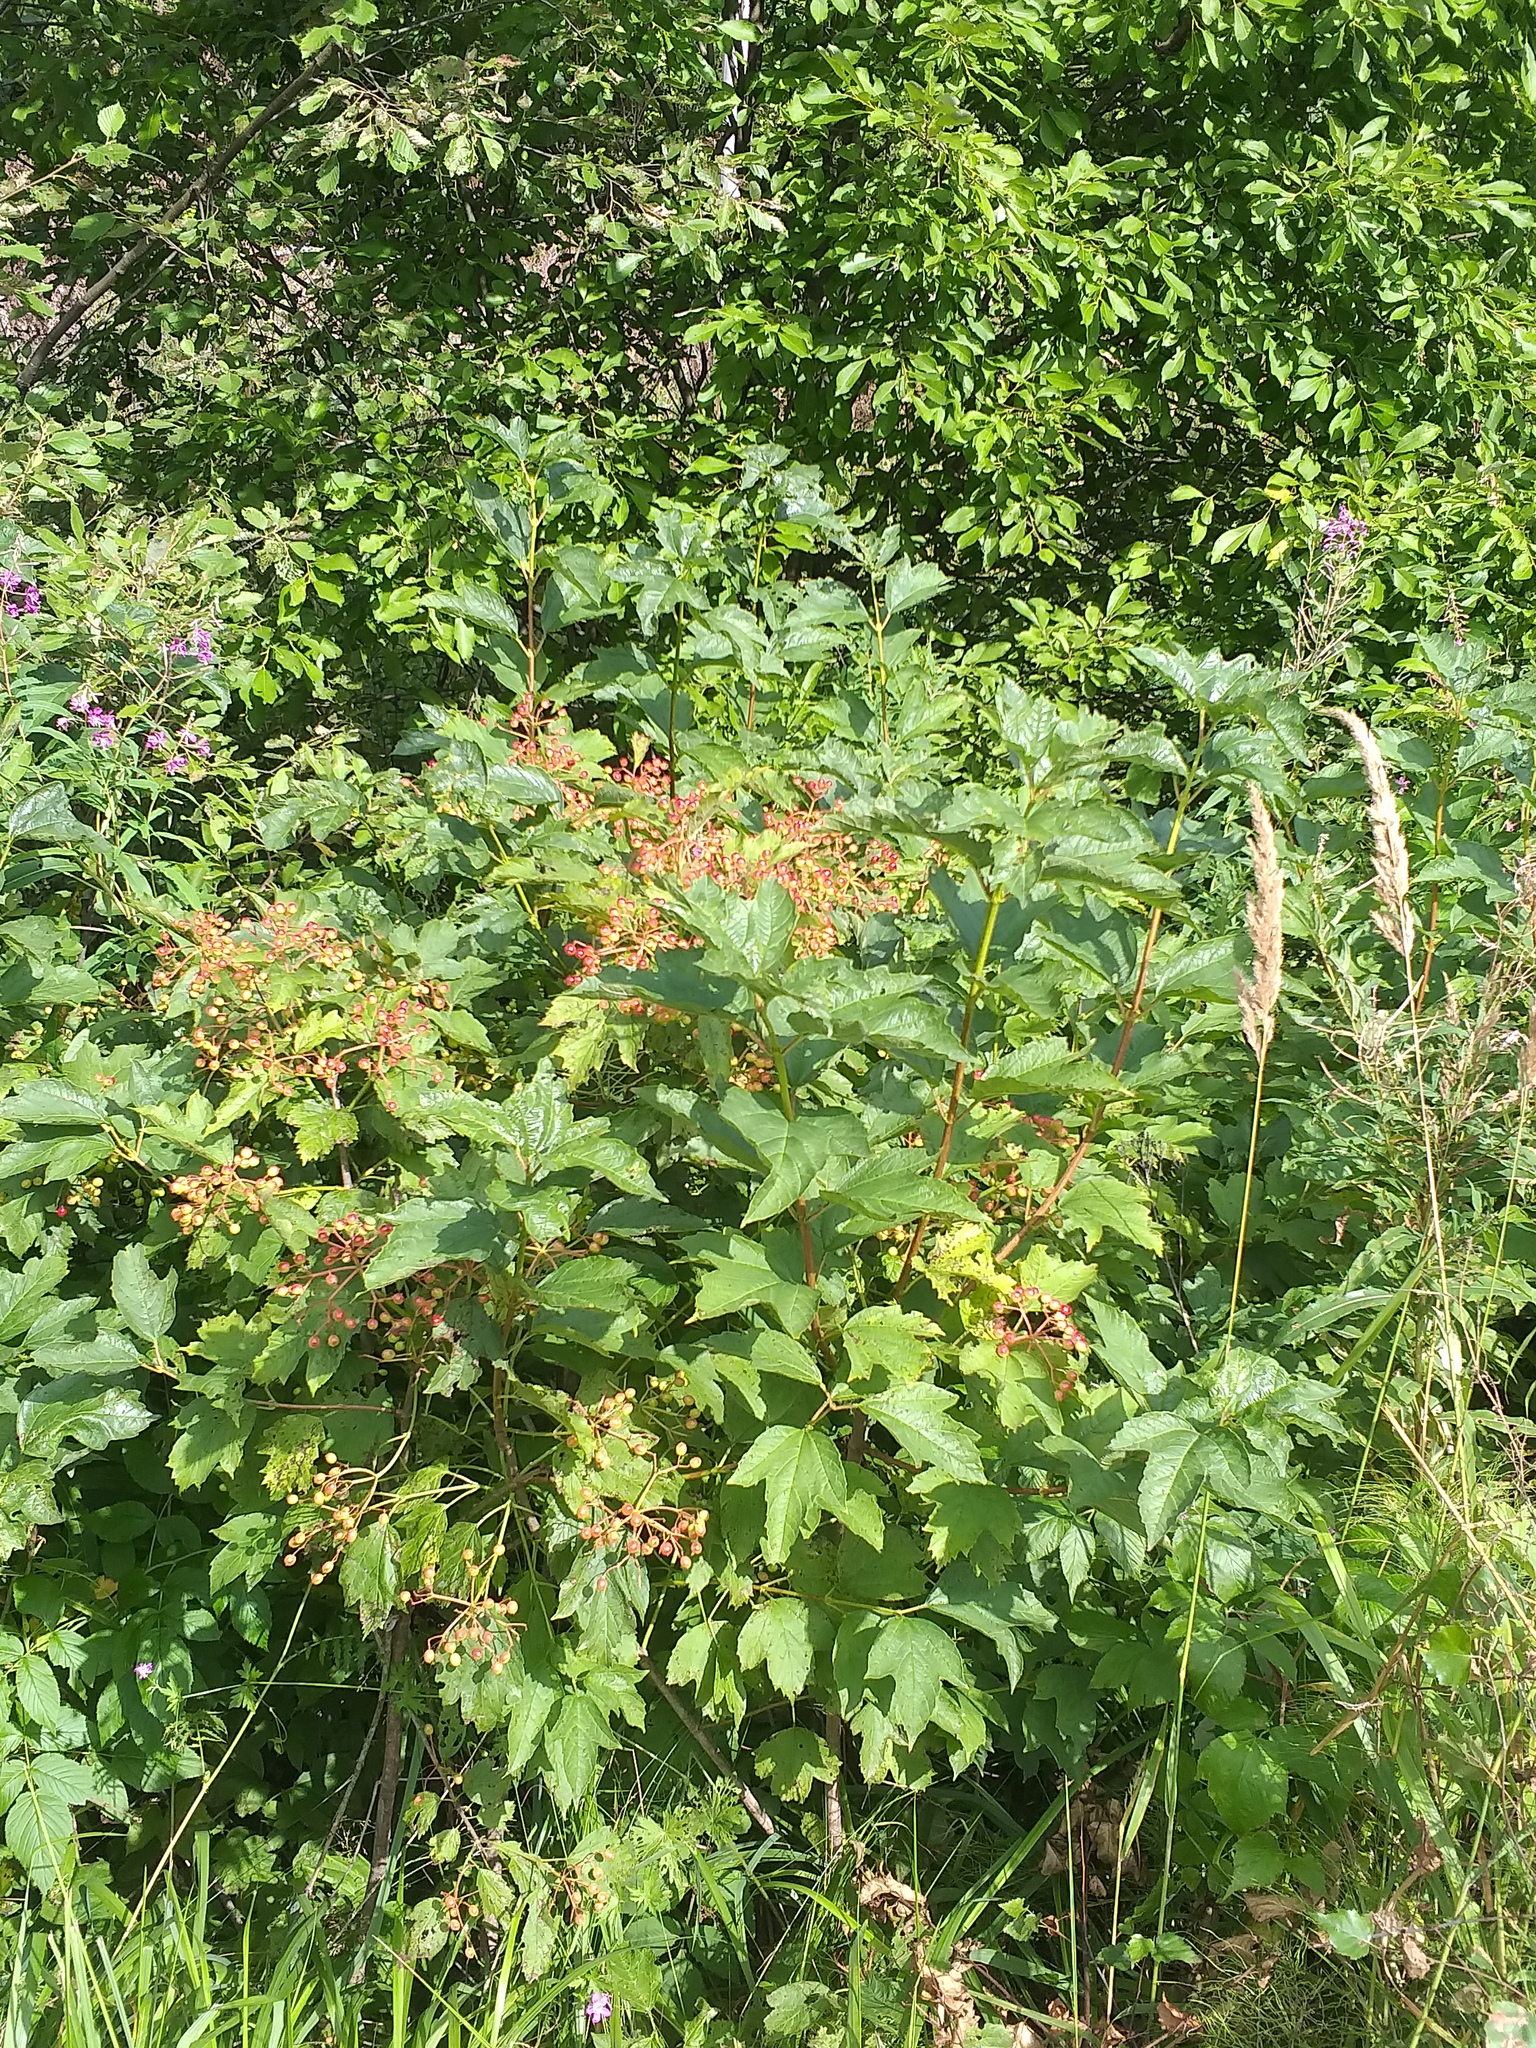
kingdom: Plantae
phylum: Tracheophyta
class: Magnoliopsida
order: Dipsacales
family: Viburnaceae
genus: Viburnum
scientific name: Viburnum opulus
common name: Guelder-rose
